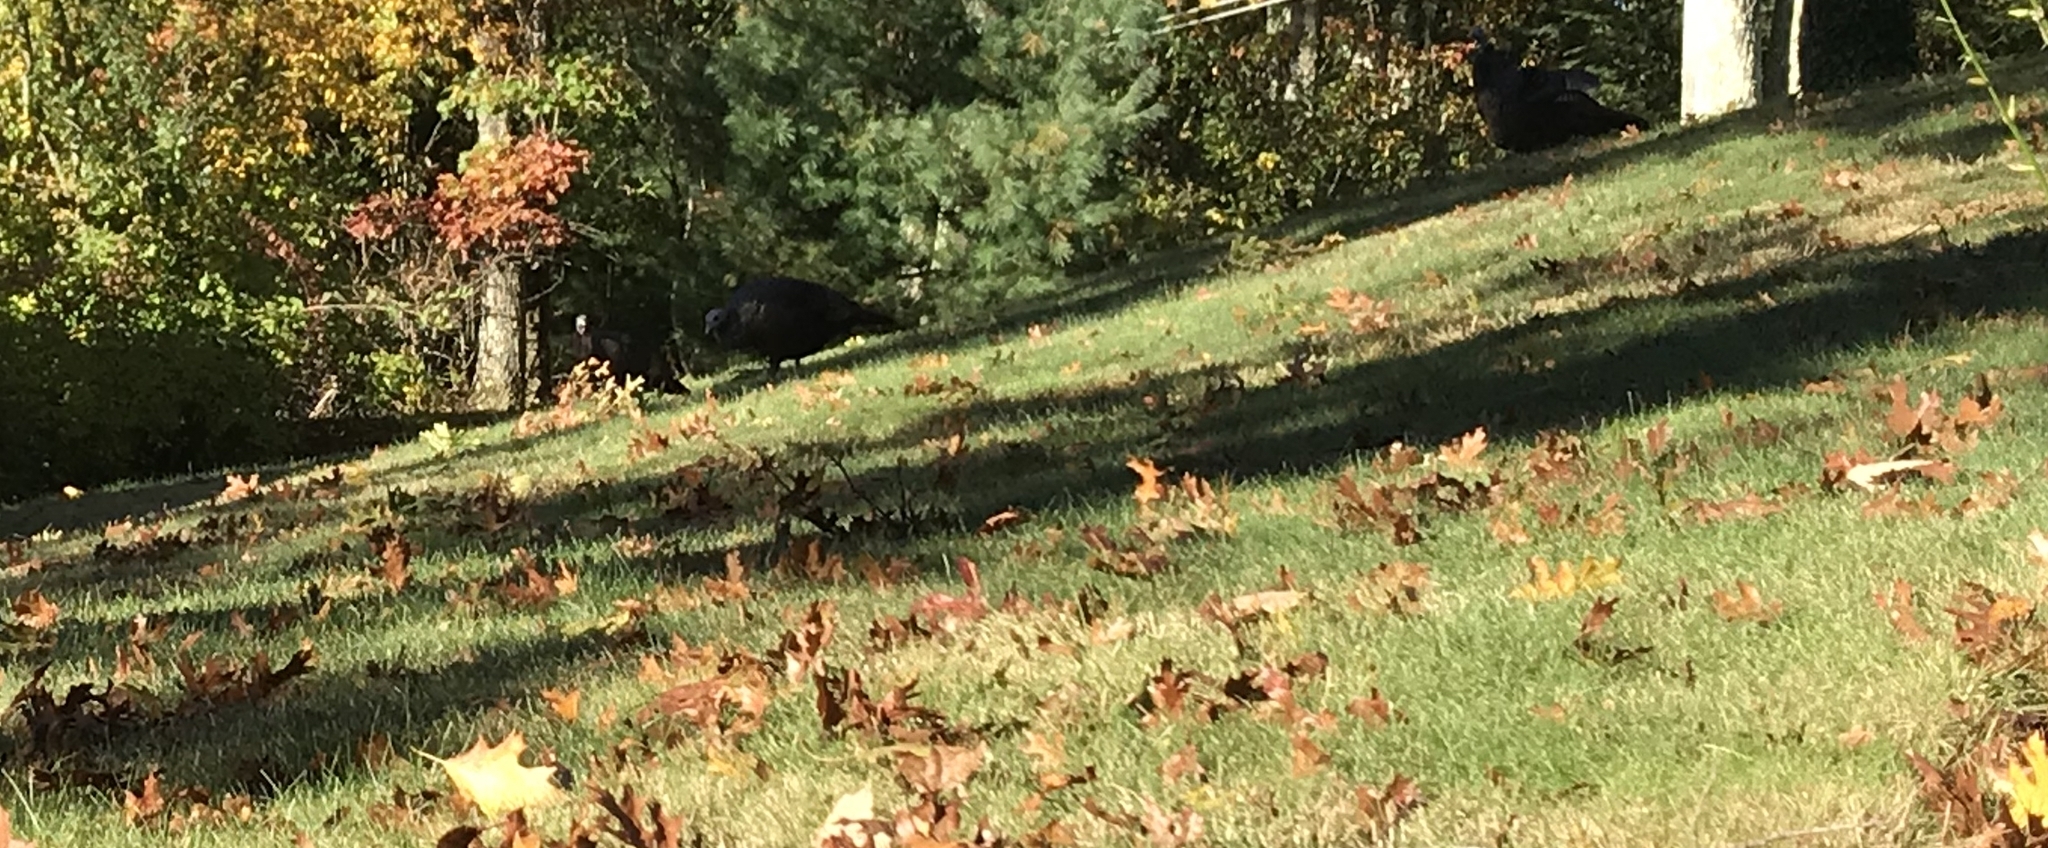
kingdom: Animalia
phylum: Chordata
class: Aves
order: Galliformes
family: Phasianidae
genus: Meleagris
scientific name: Meleagris gallopavo
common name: Wild turkey
